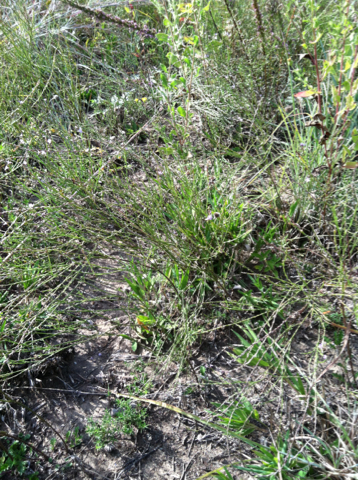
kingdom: Plantae
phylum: Tracheophyta
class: Magnoliopsida
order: Lamiales
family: Verbenaceae
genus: Verbena
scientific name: Verbena halei
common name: Texas vervain
